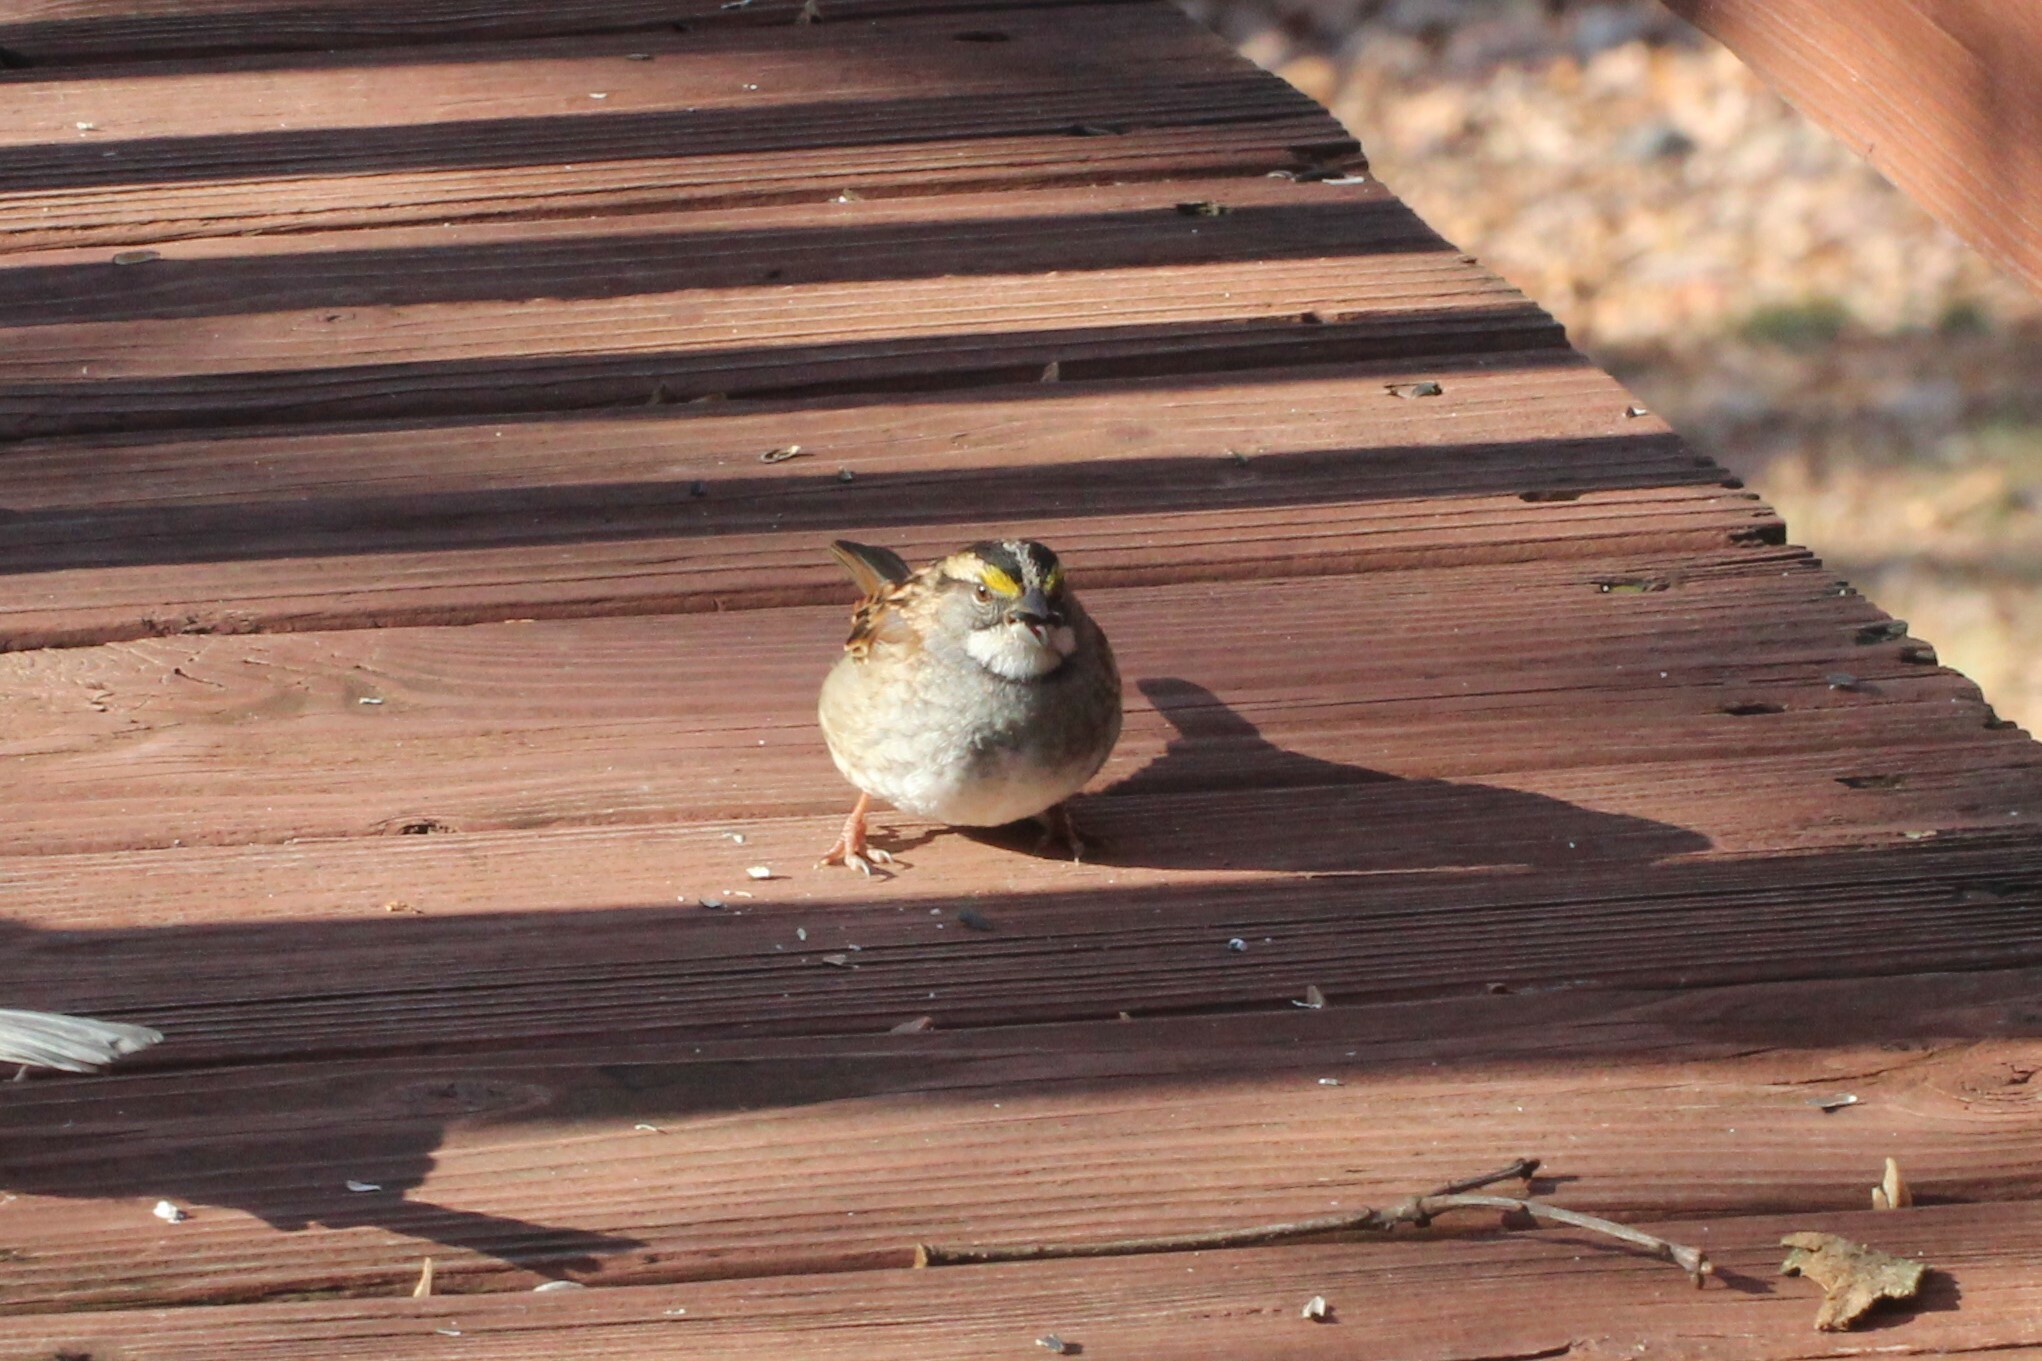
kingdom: Animalia
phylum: Chordata
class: Aves
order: Passeriformes
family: Passerellidae
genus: Zonotrichia
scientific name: Zonotrichia albicollis
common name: White-throated sparrow
